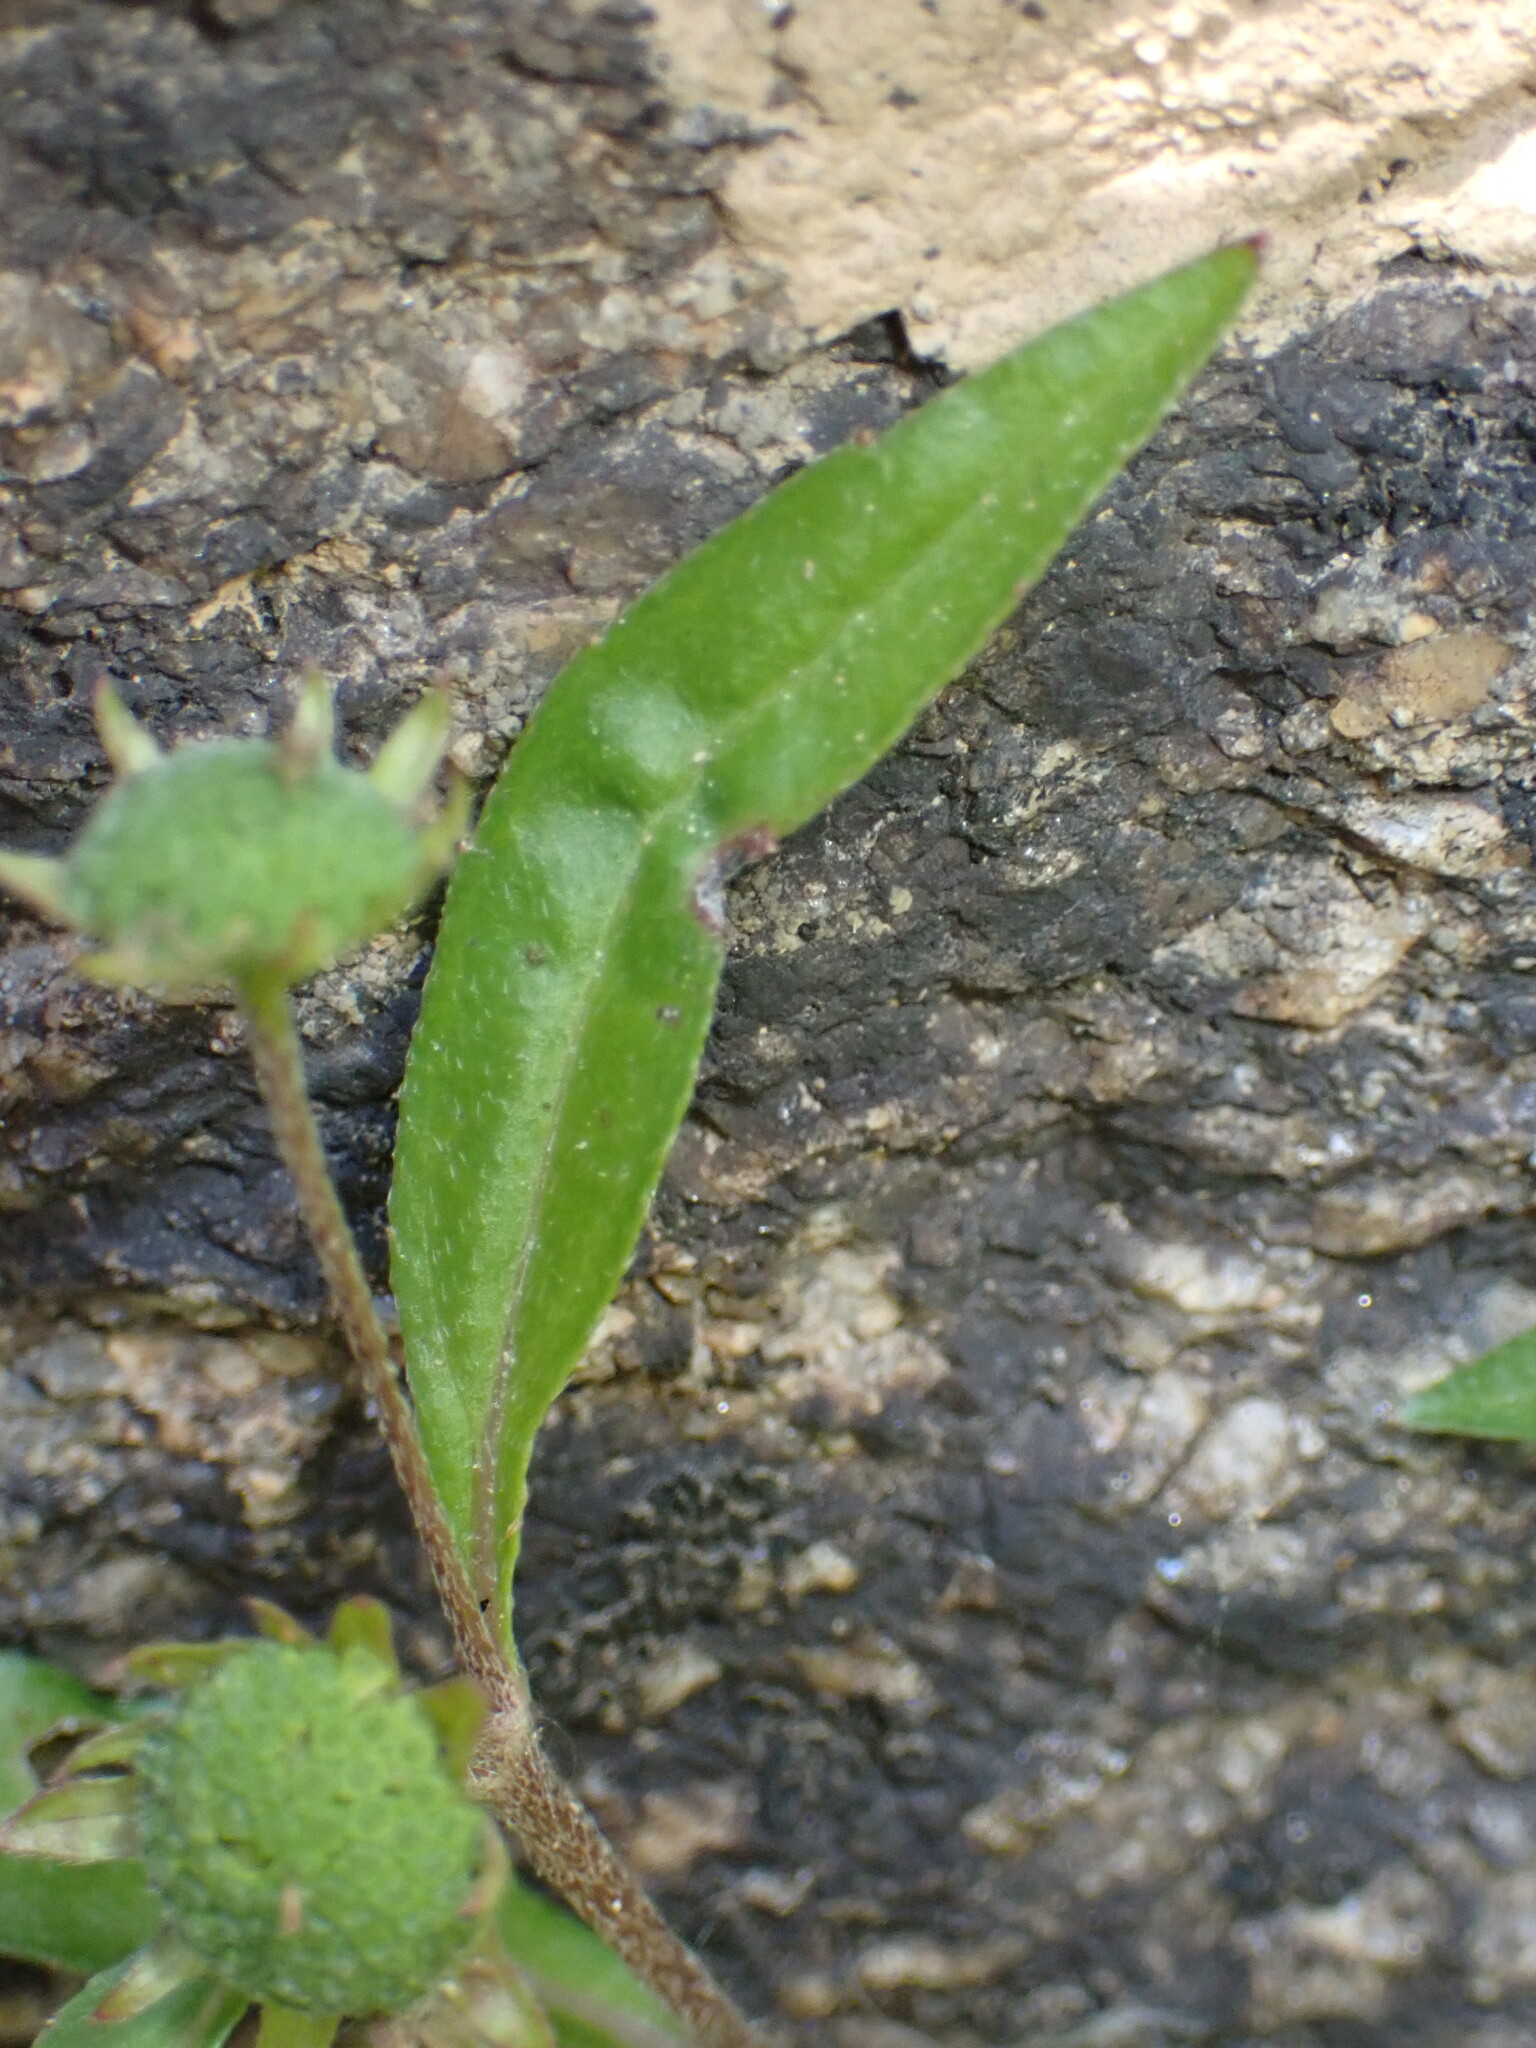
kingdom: Plantae
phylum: Tracheophyta
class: Magnoliopsida
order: Asterales
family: Asteraceae
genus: Eclipta
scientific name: Eclipta prostrata
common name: False daisy
